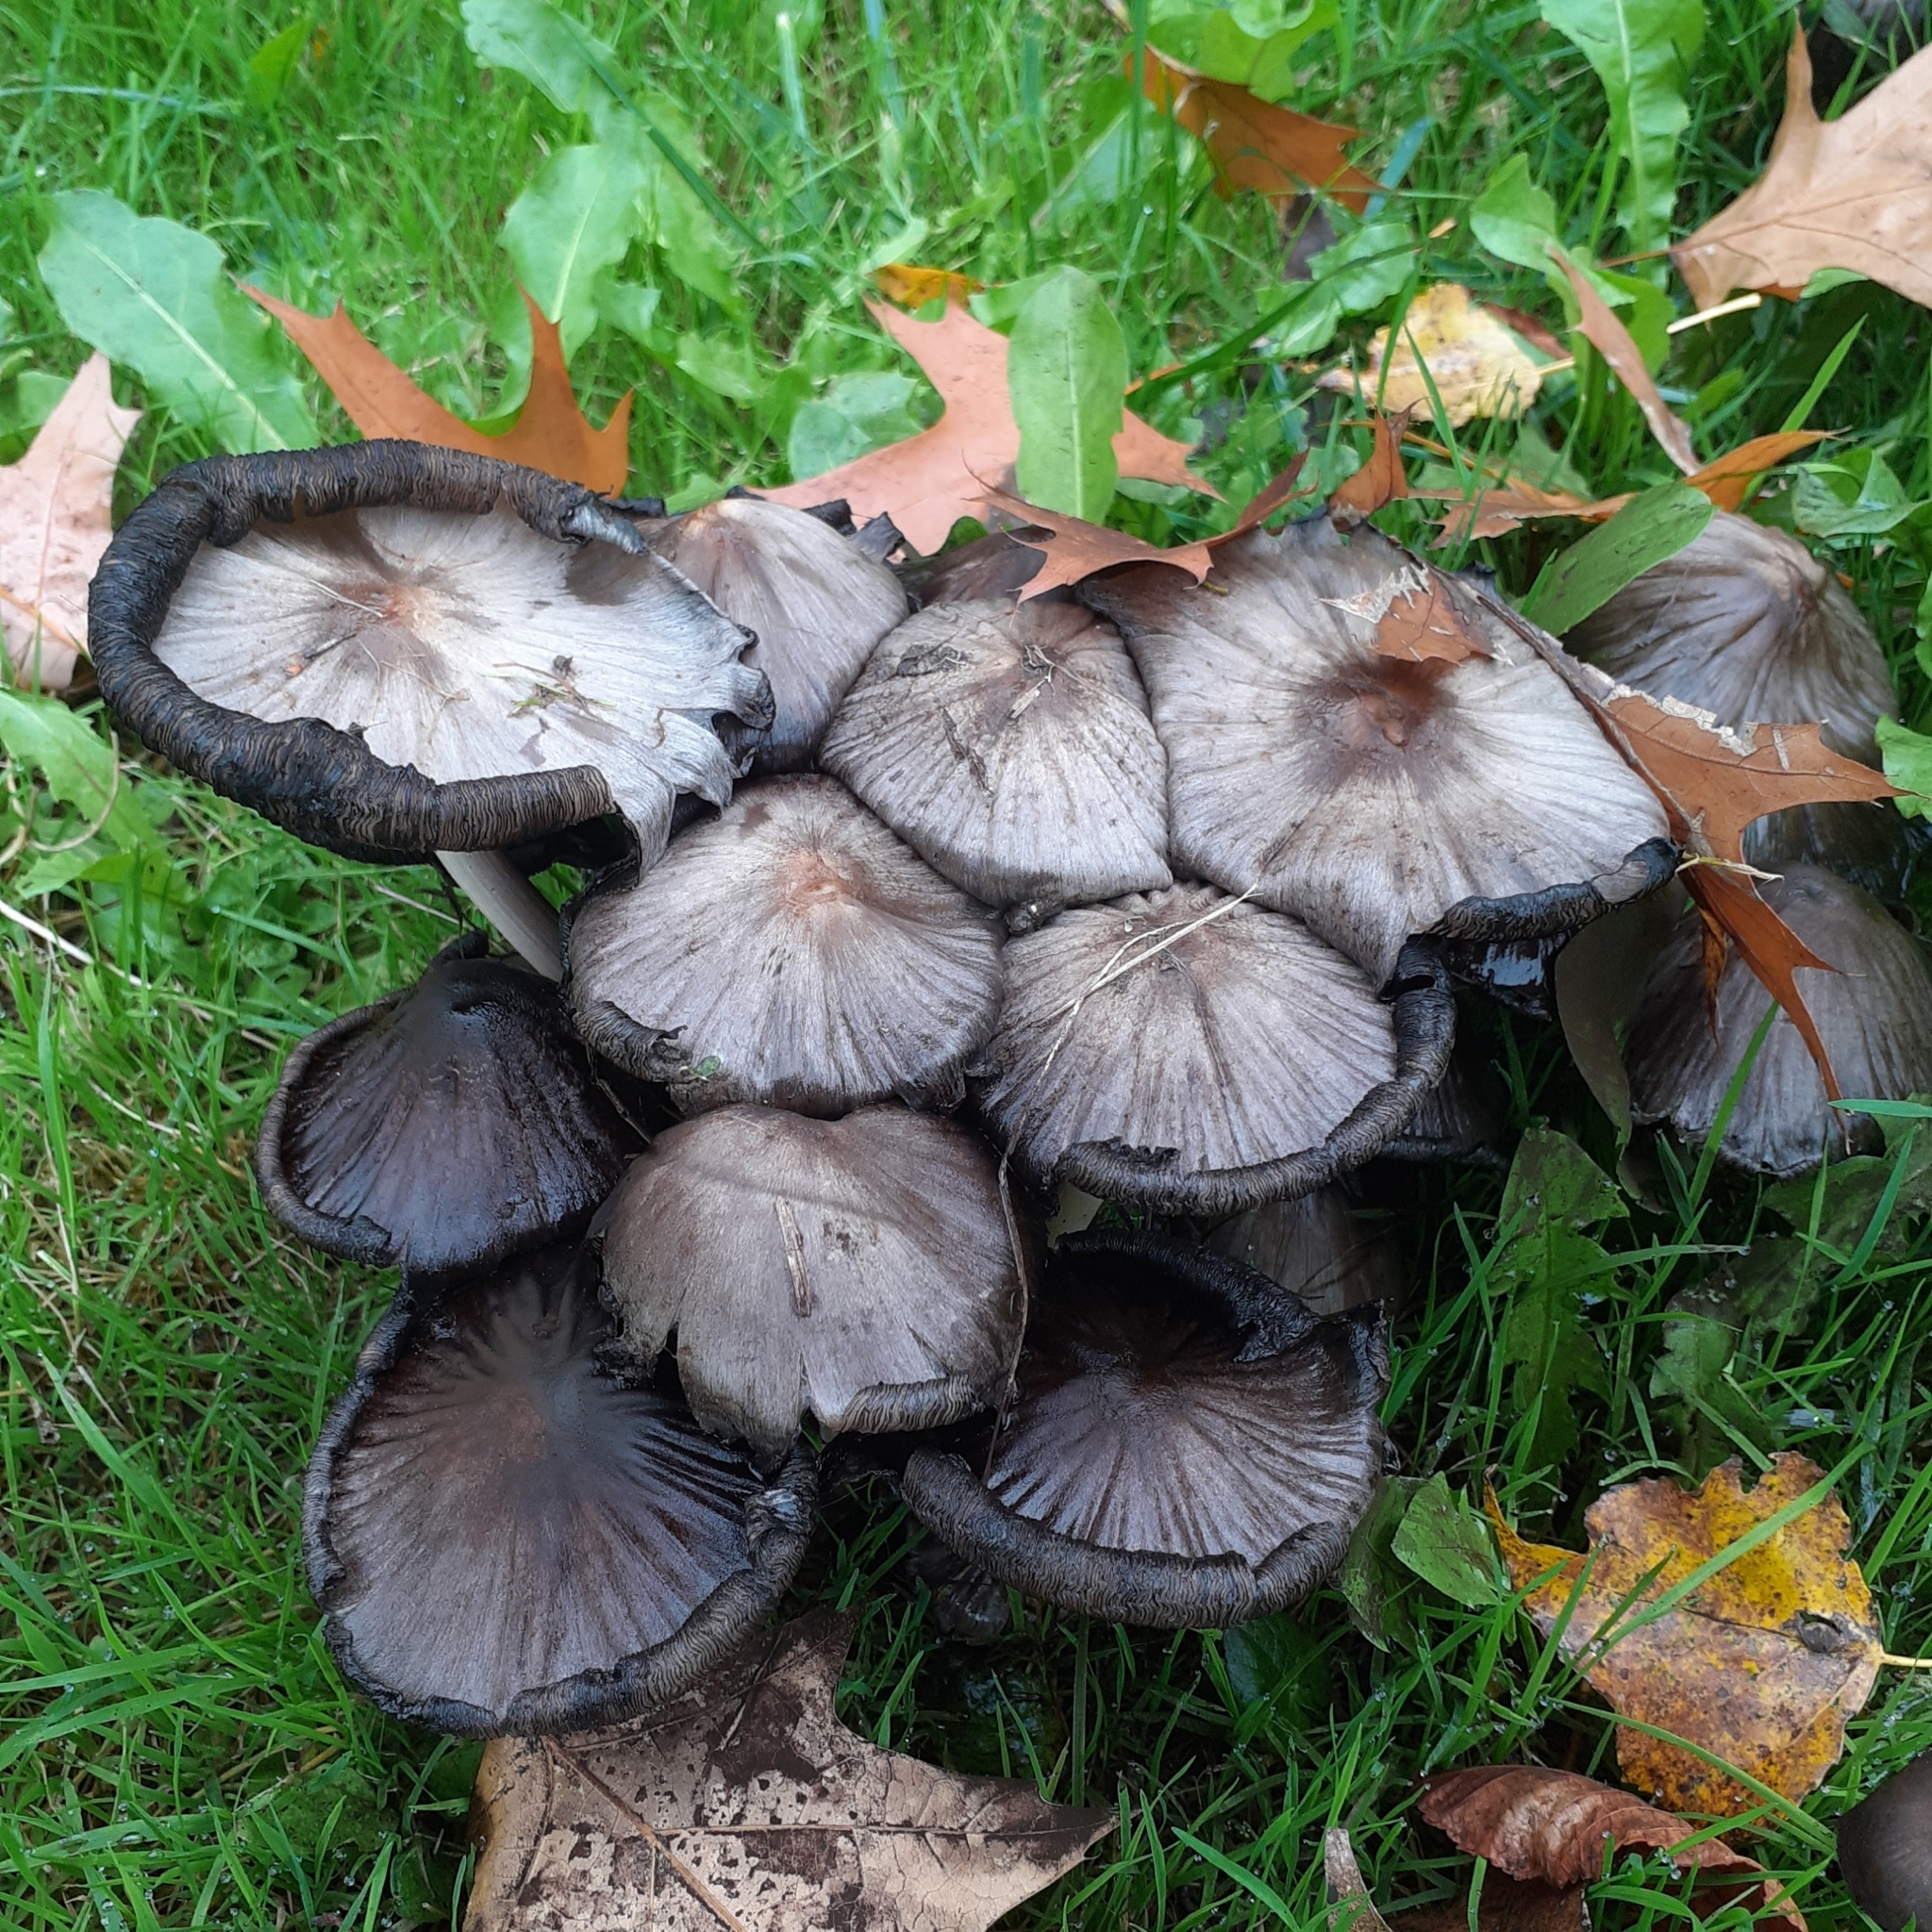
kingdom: Fungi
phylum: Basidiomycota
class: Agaricomycetes
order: Agaricales
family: Psathyrellaceae
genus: Coprinopsis
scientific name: Coprinopsis atramentaria
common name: Common ink-cap
